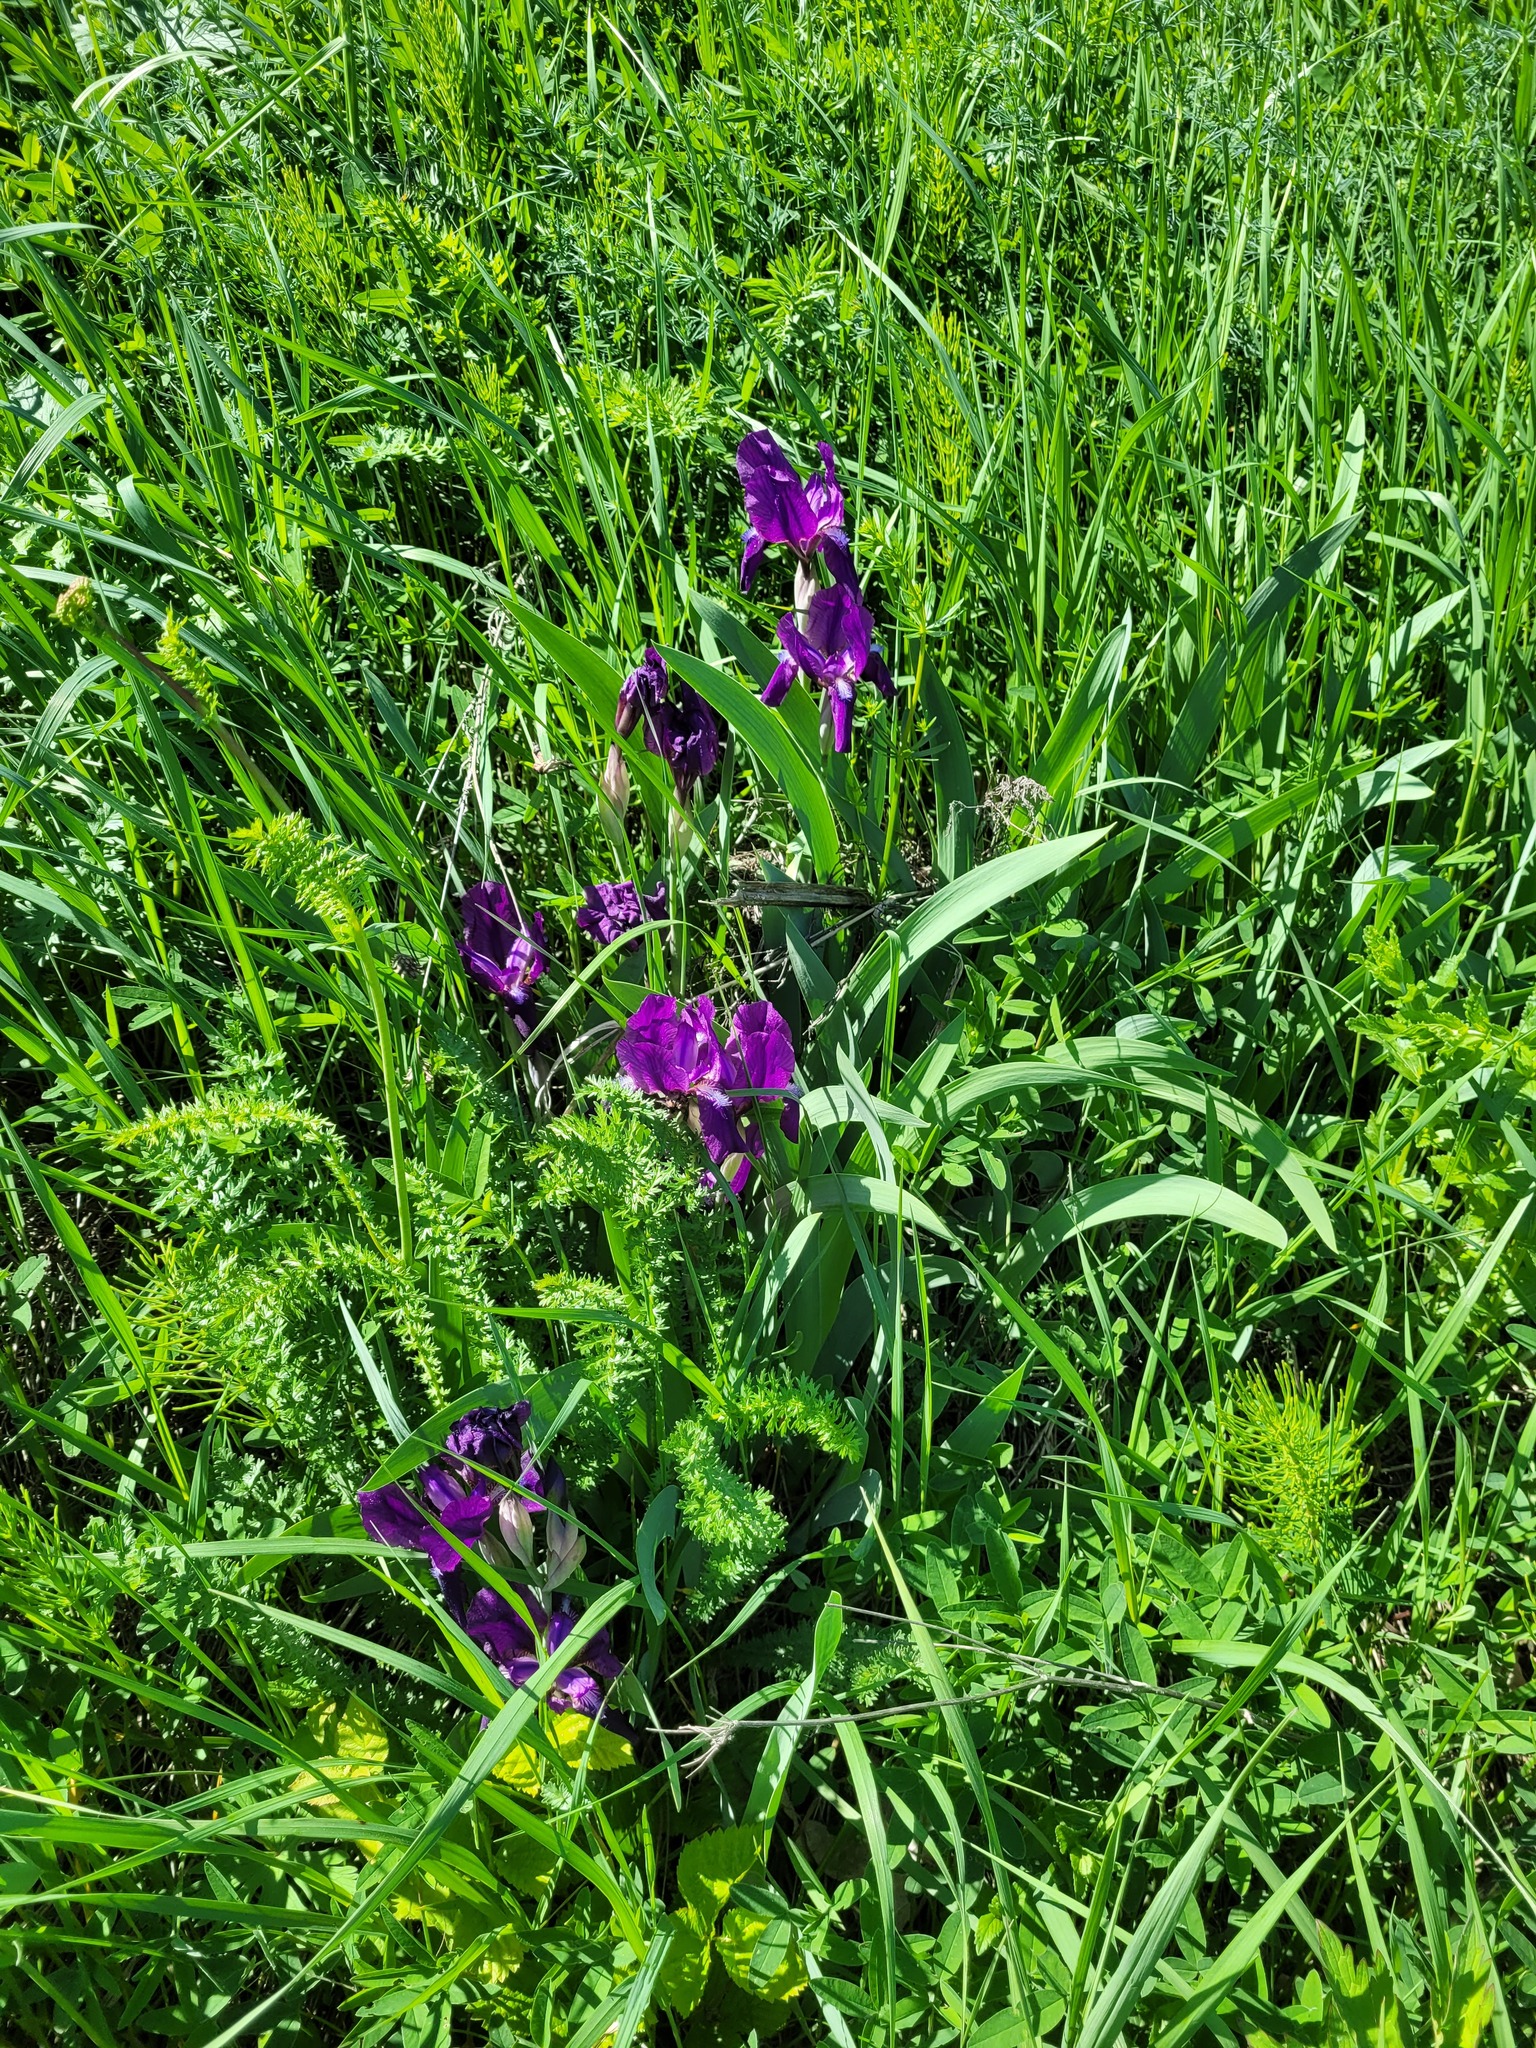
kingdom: Plantae
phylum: Tracheophyta
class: Liliopsida
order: Asparagales
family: Iridaceae
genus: Iris
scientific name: Iris aphylla
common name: Stool iris
